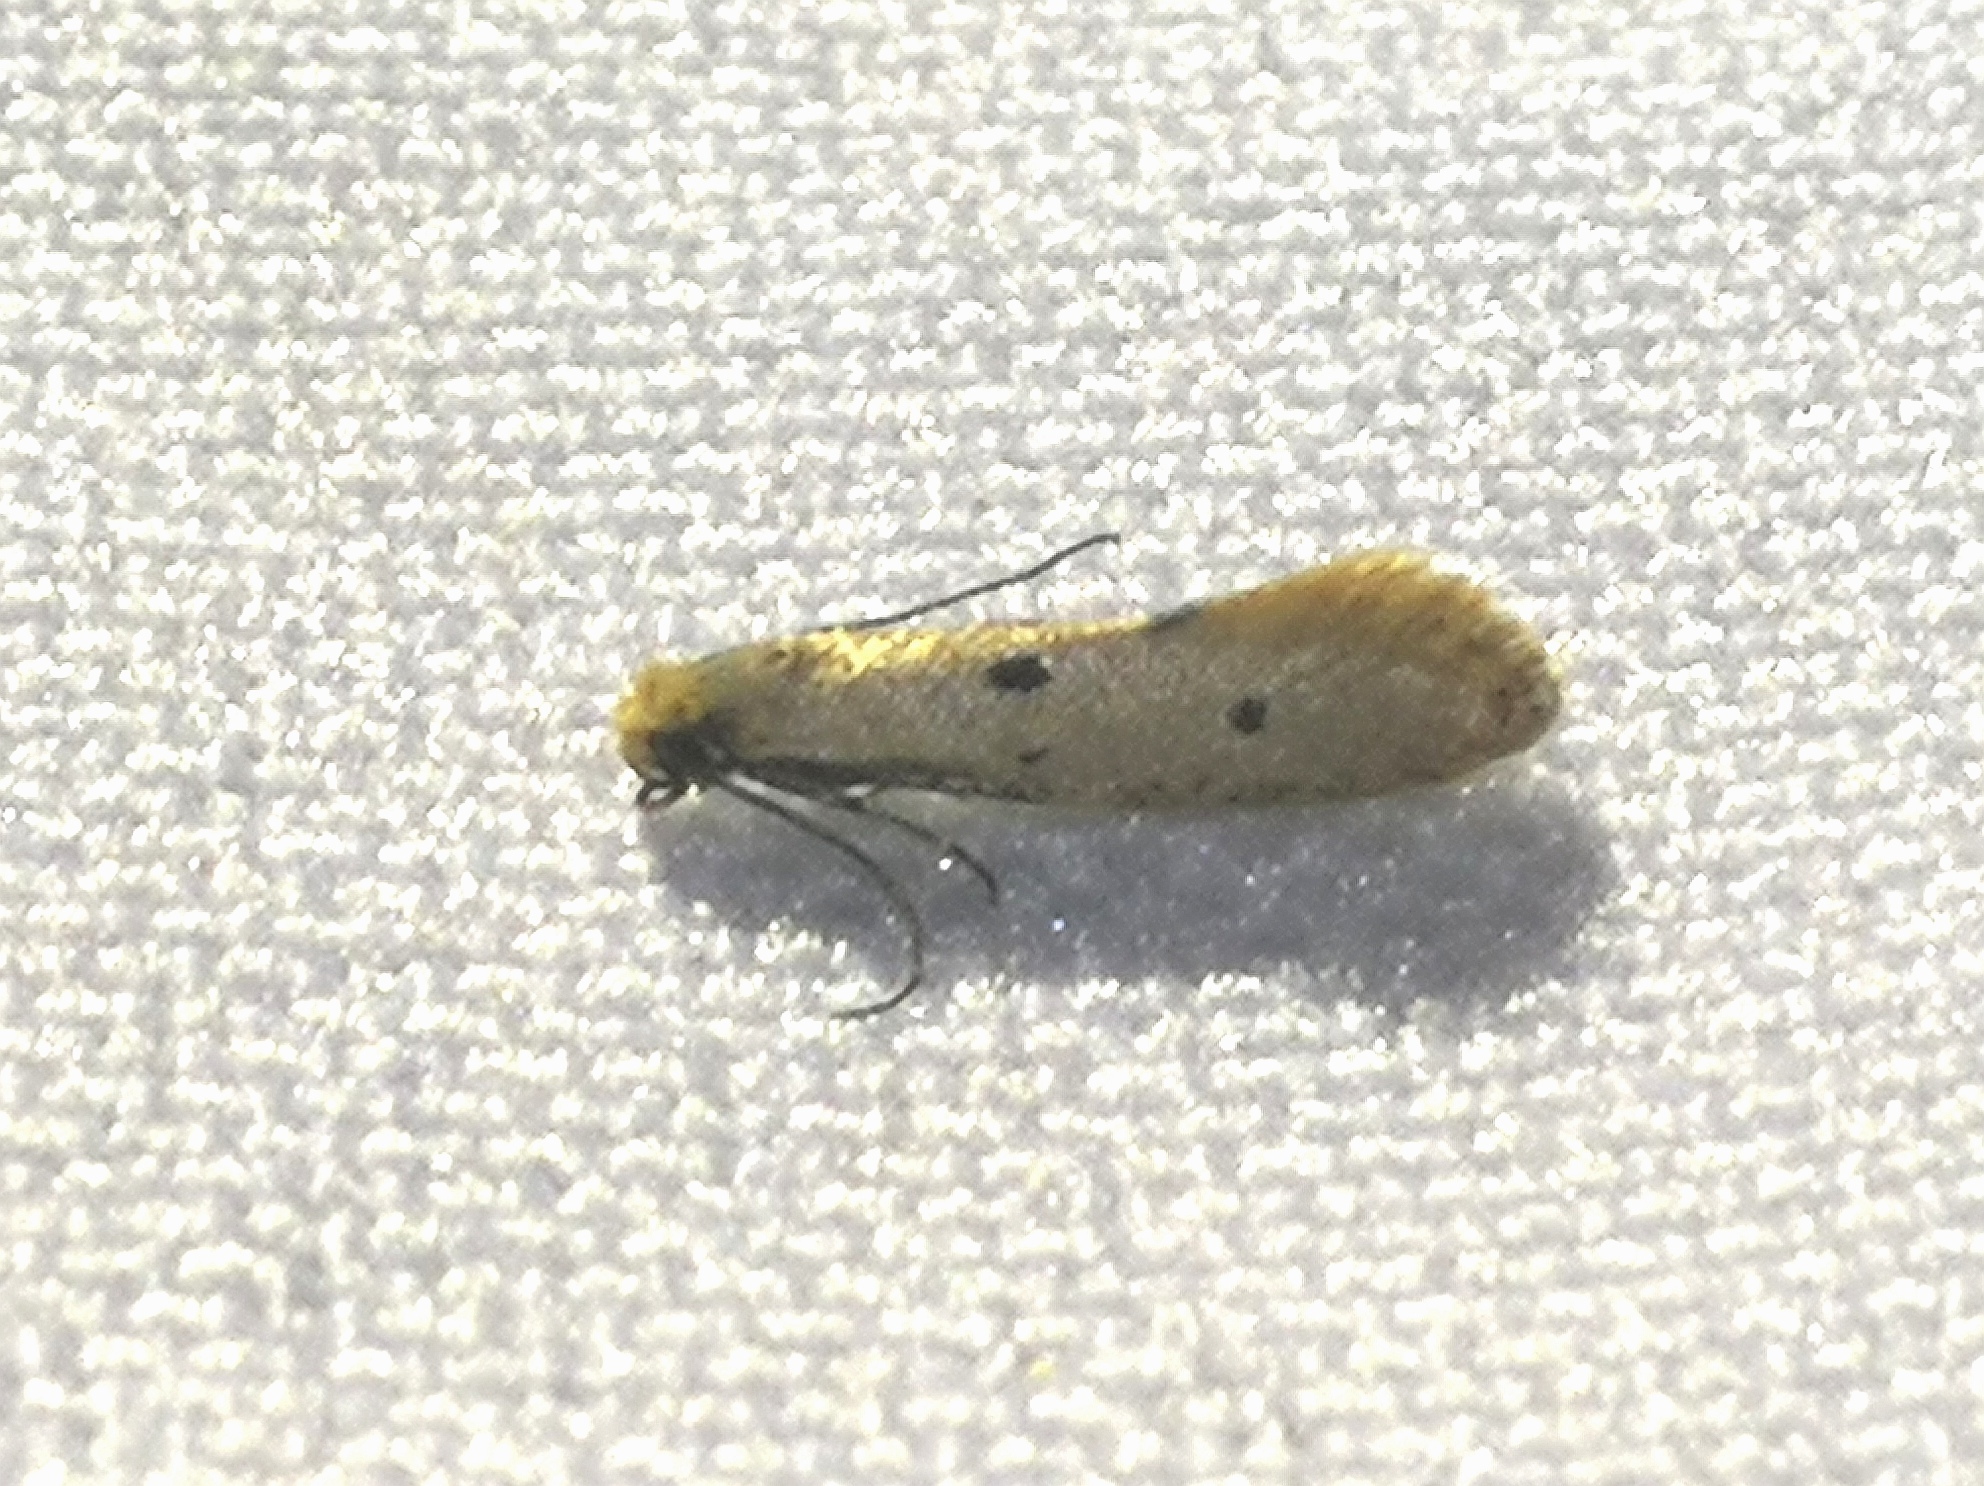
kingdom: Animalia
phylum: Arthropoda
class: Insecta
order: Lepidoptera
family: Tineidae
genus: Tinea
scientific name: Tinea trinotella
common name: Bird's-nest moth
